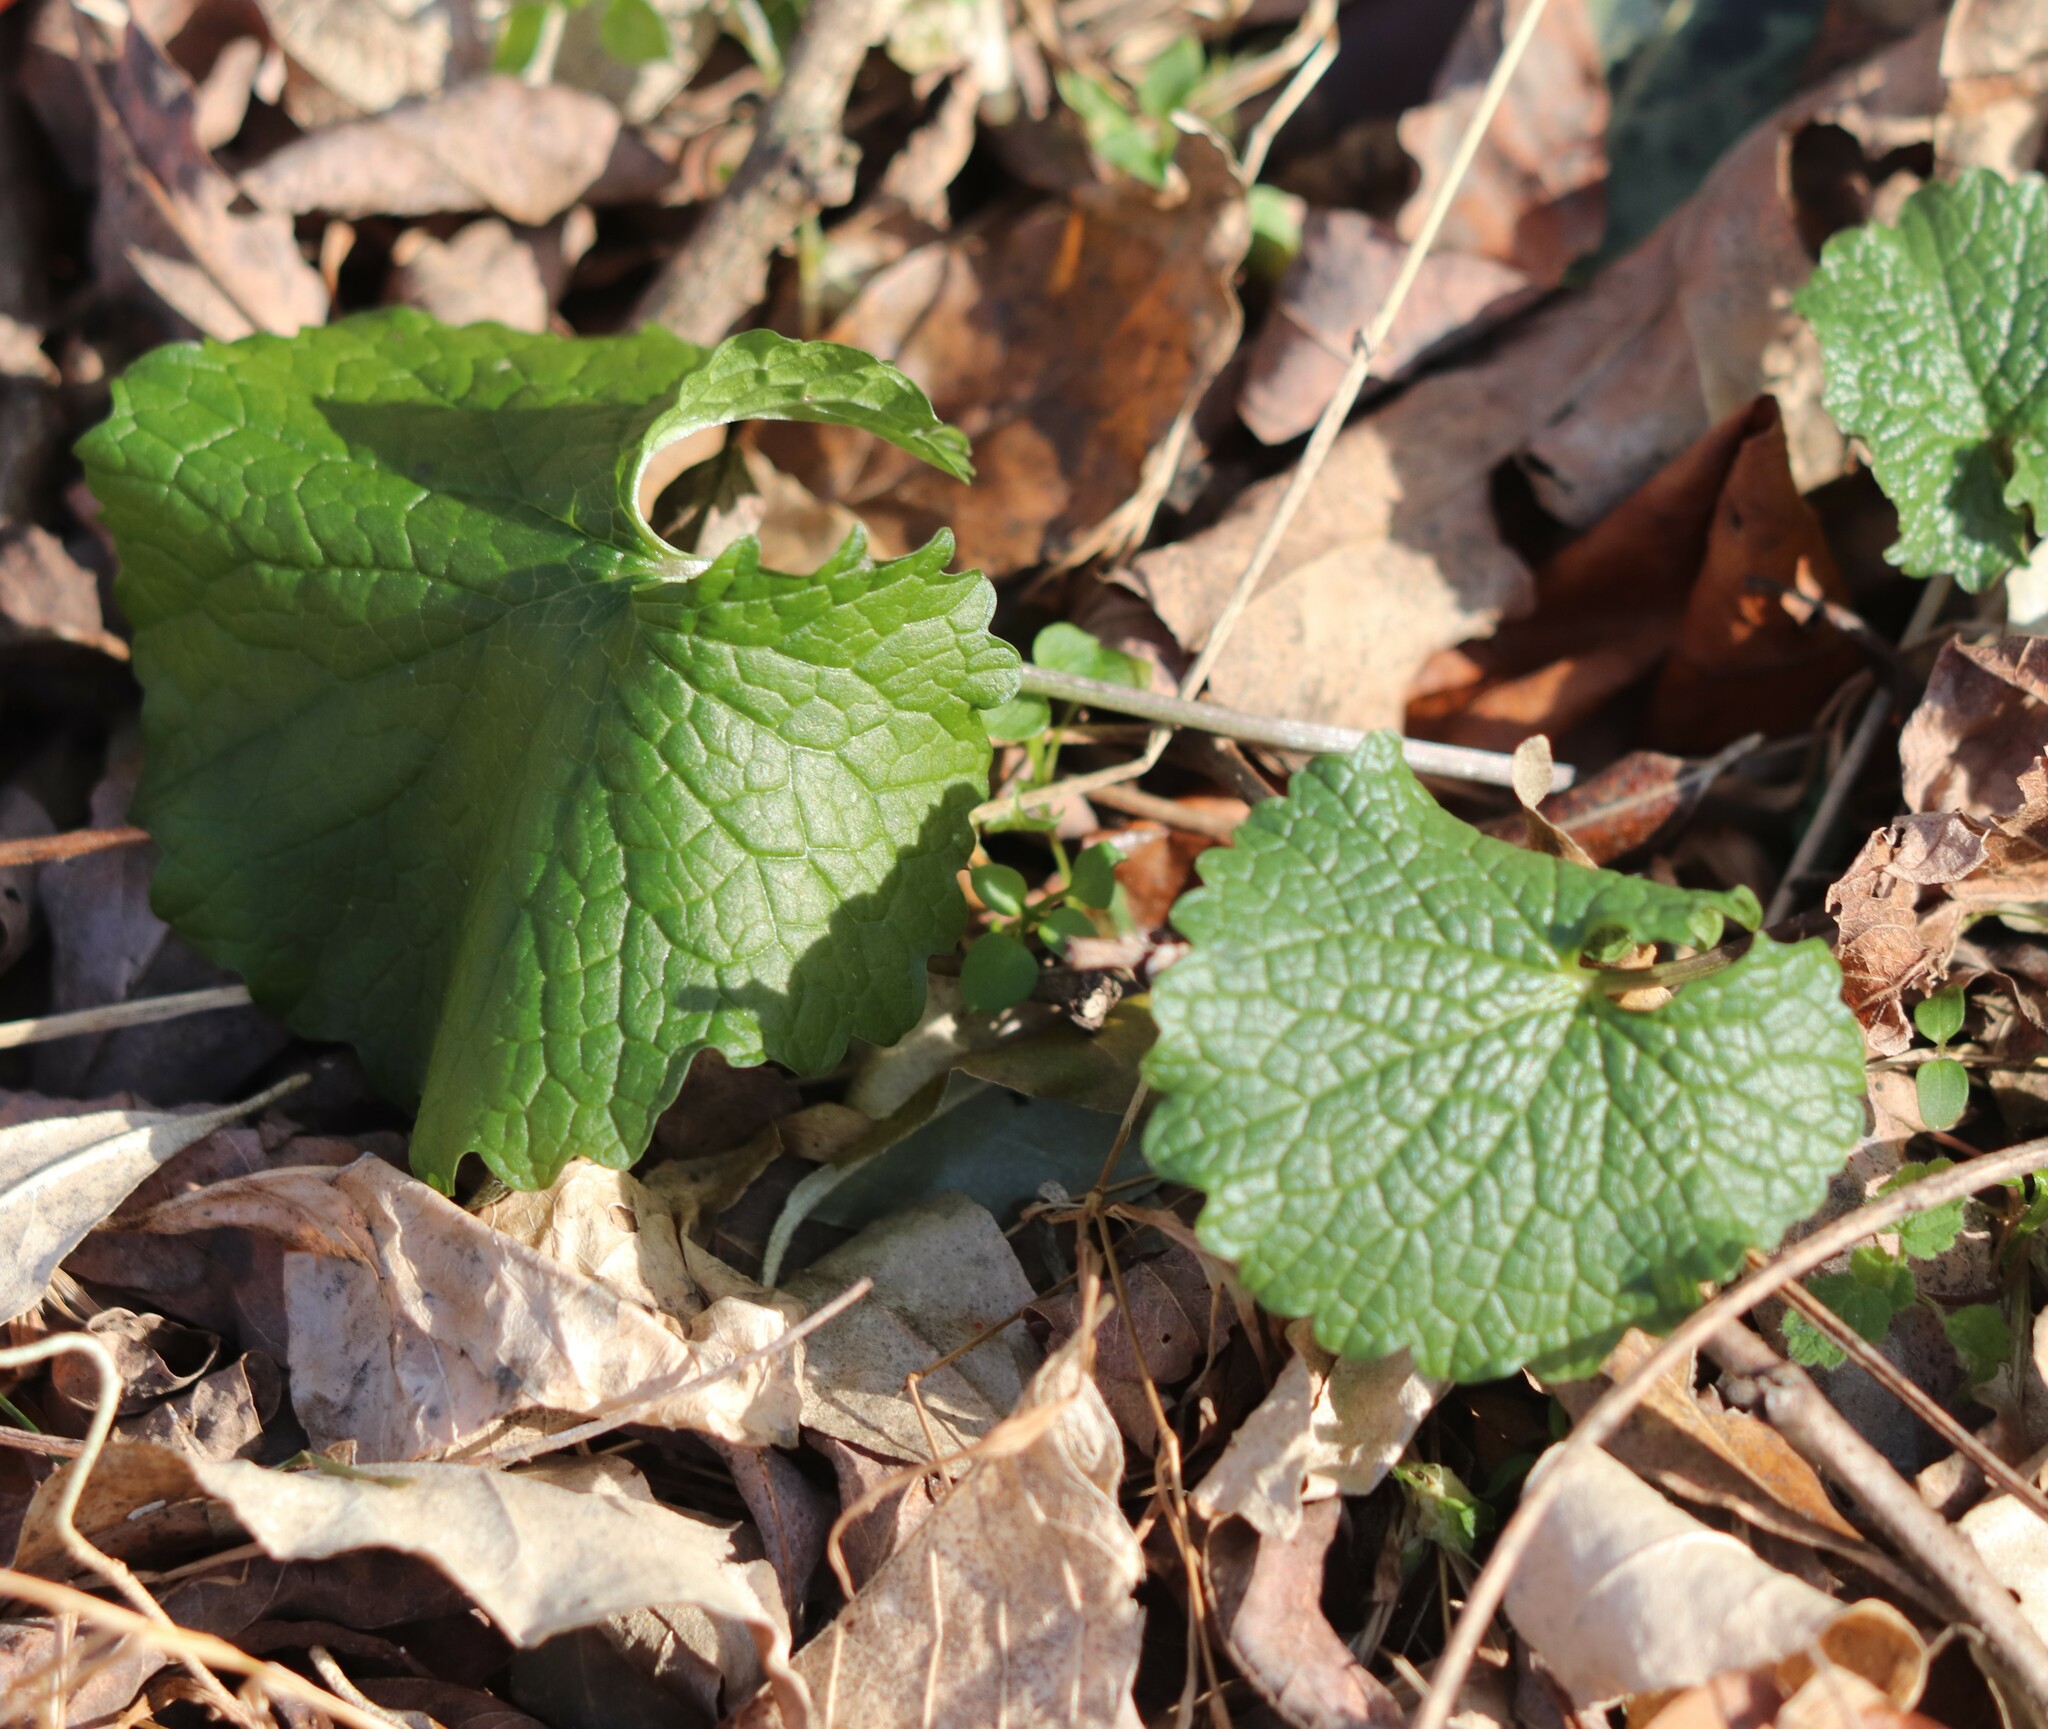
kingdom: Plantae
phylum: Tracheophyta
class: Magnoliopsida
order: Brassicales
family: Brassicaceae
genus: Alliaria
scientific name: Alliaria petiolata
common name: Garlic mustard
